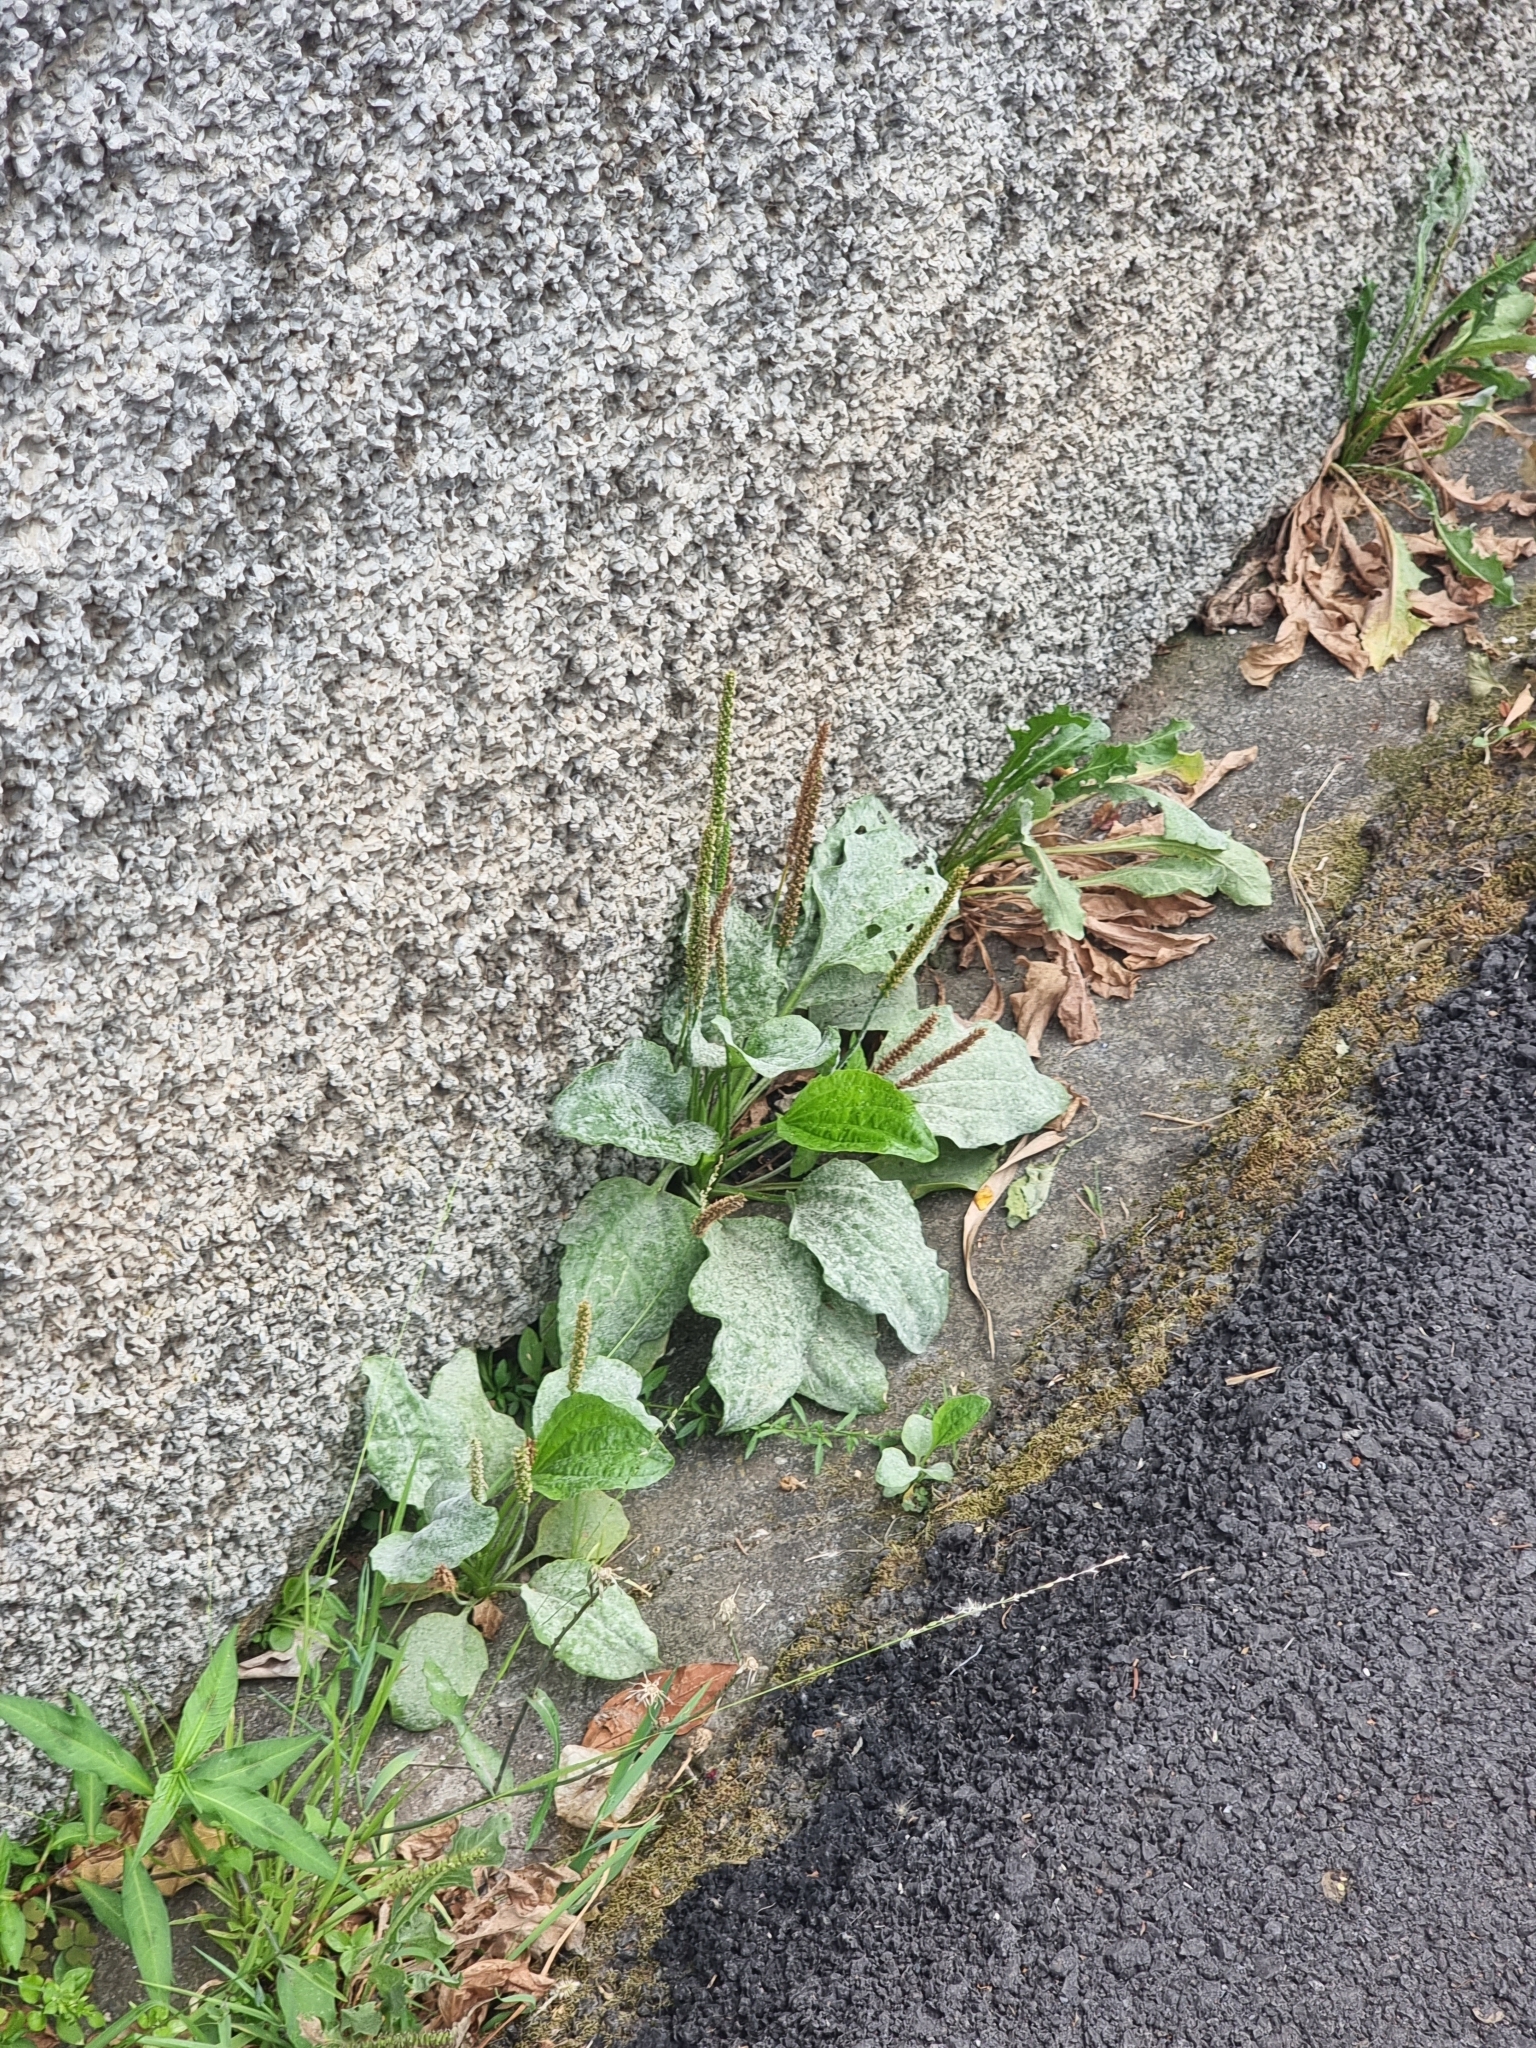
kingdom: Plantae
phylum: Tracheophyta
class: Magnoliopsida
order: Lamiales
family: Plantaginaceae
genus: Plantago
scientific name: Plantago major
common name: Common plantain
